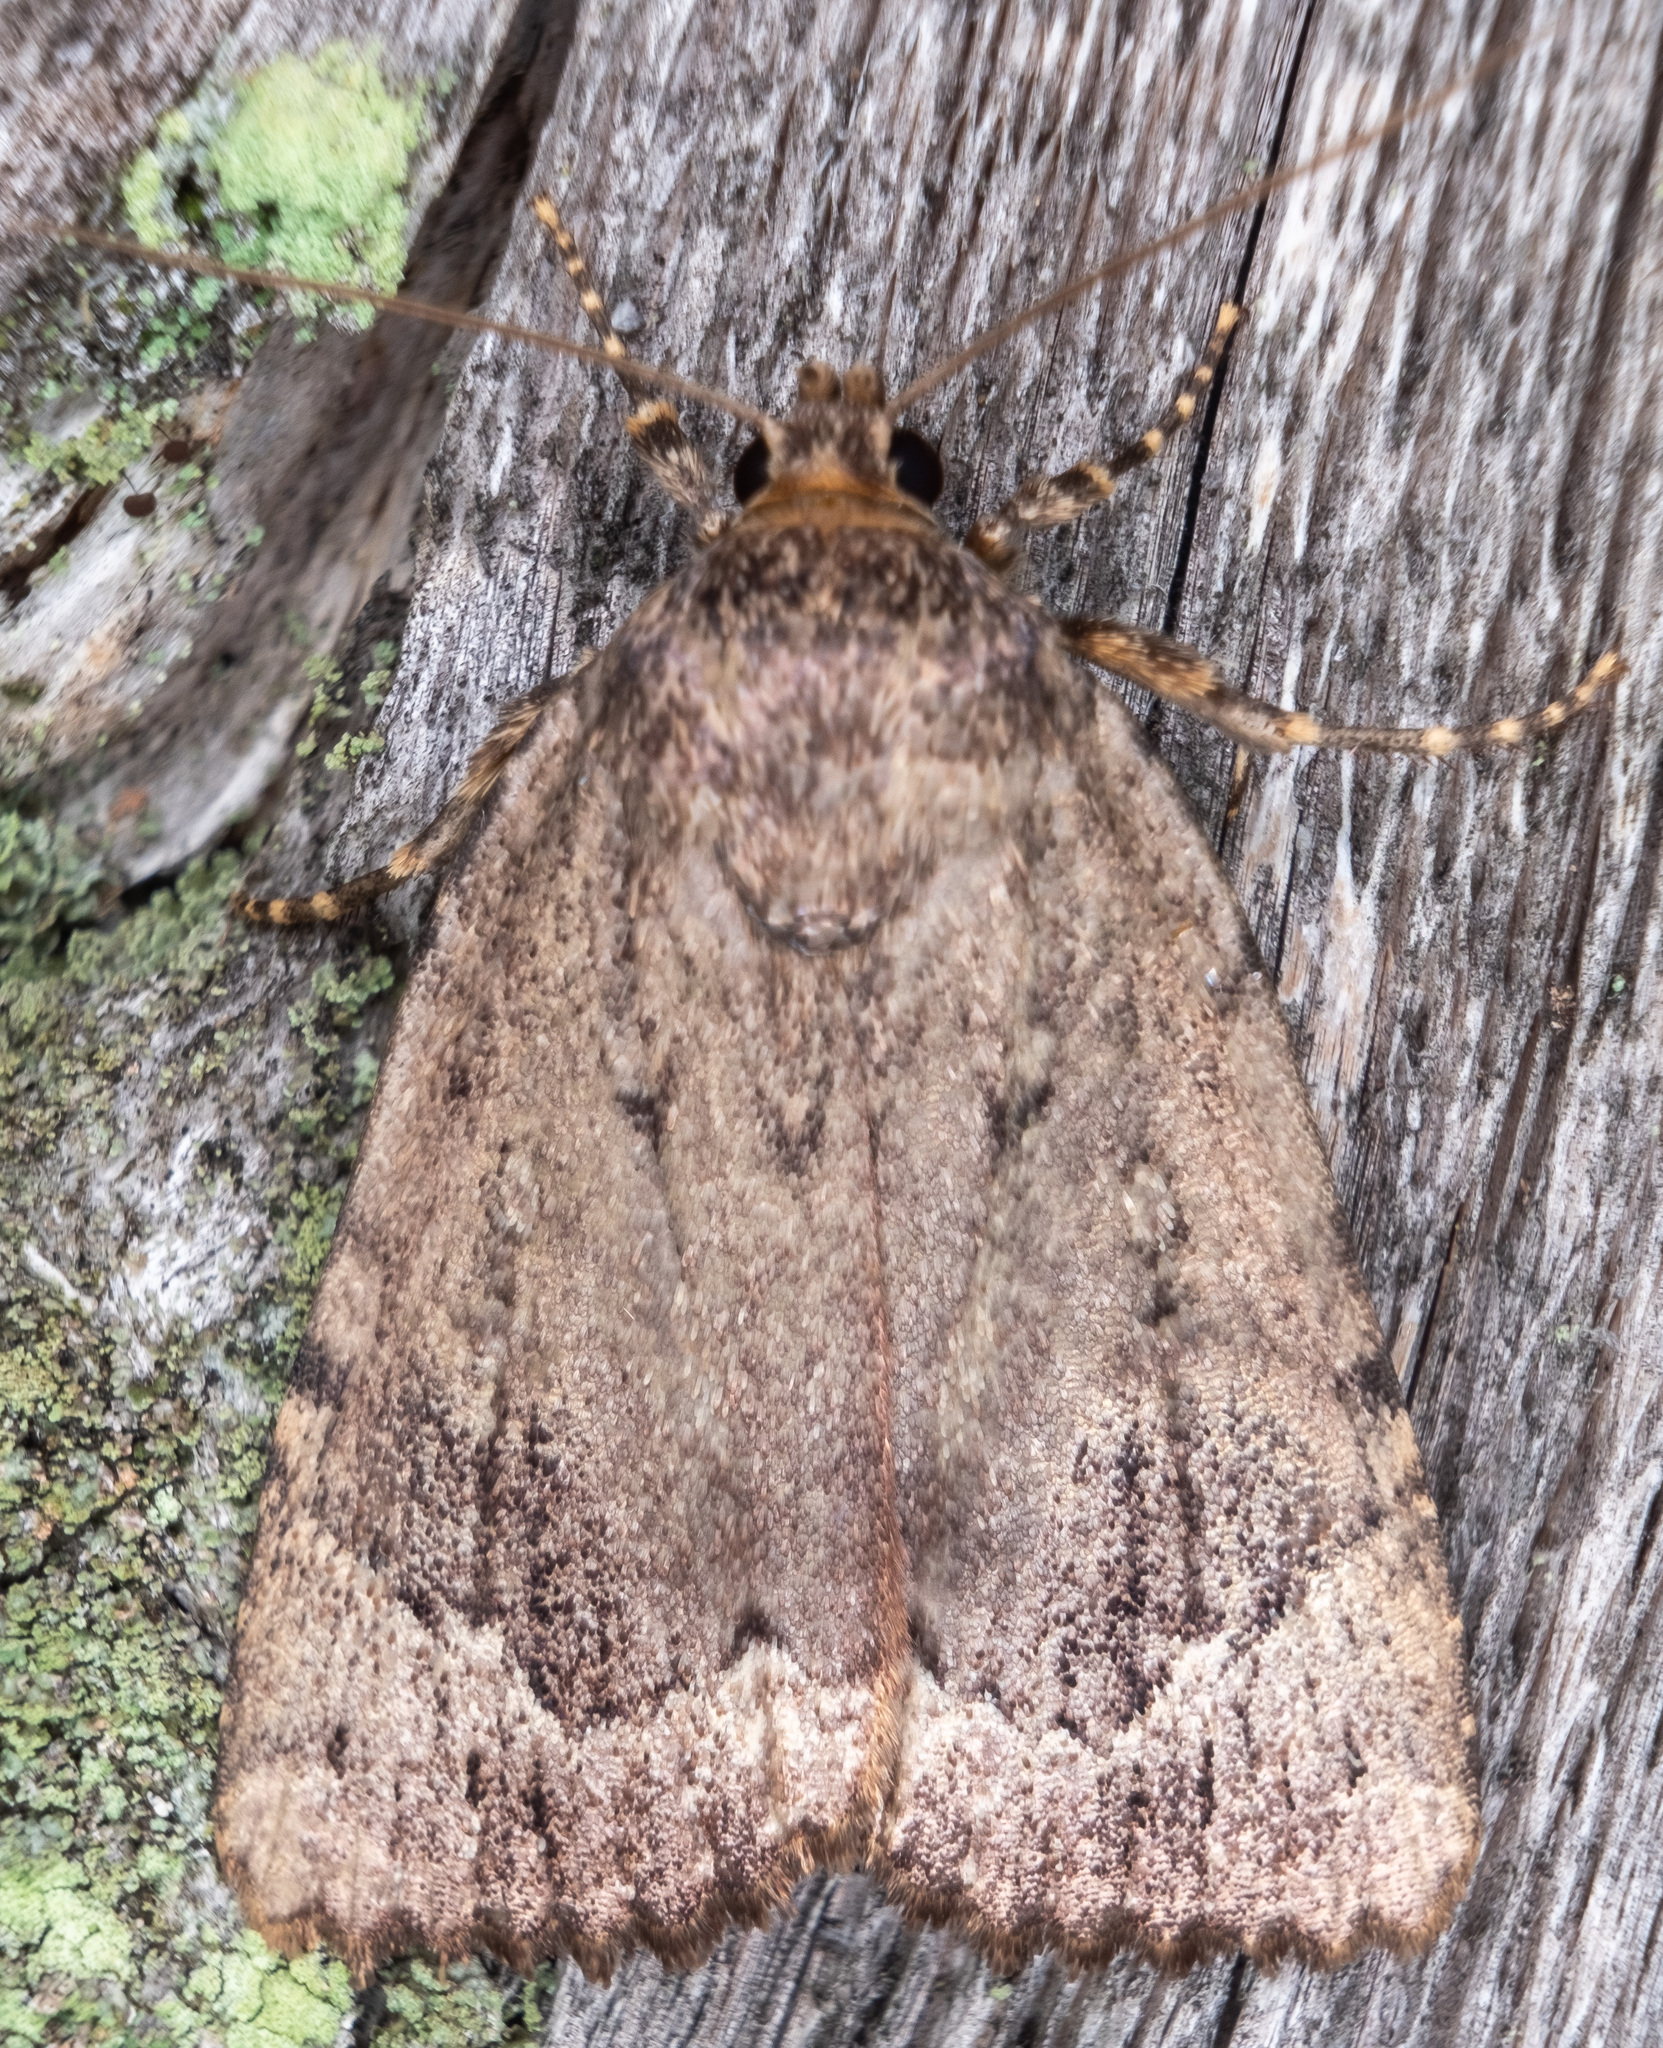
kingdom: Animalia
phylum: Arthropoda
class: Insecta
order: Lepidoptera
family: Noctuidae
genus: Amphipyra
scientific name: Amphipyra pyramidoides
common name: American copper underwing
